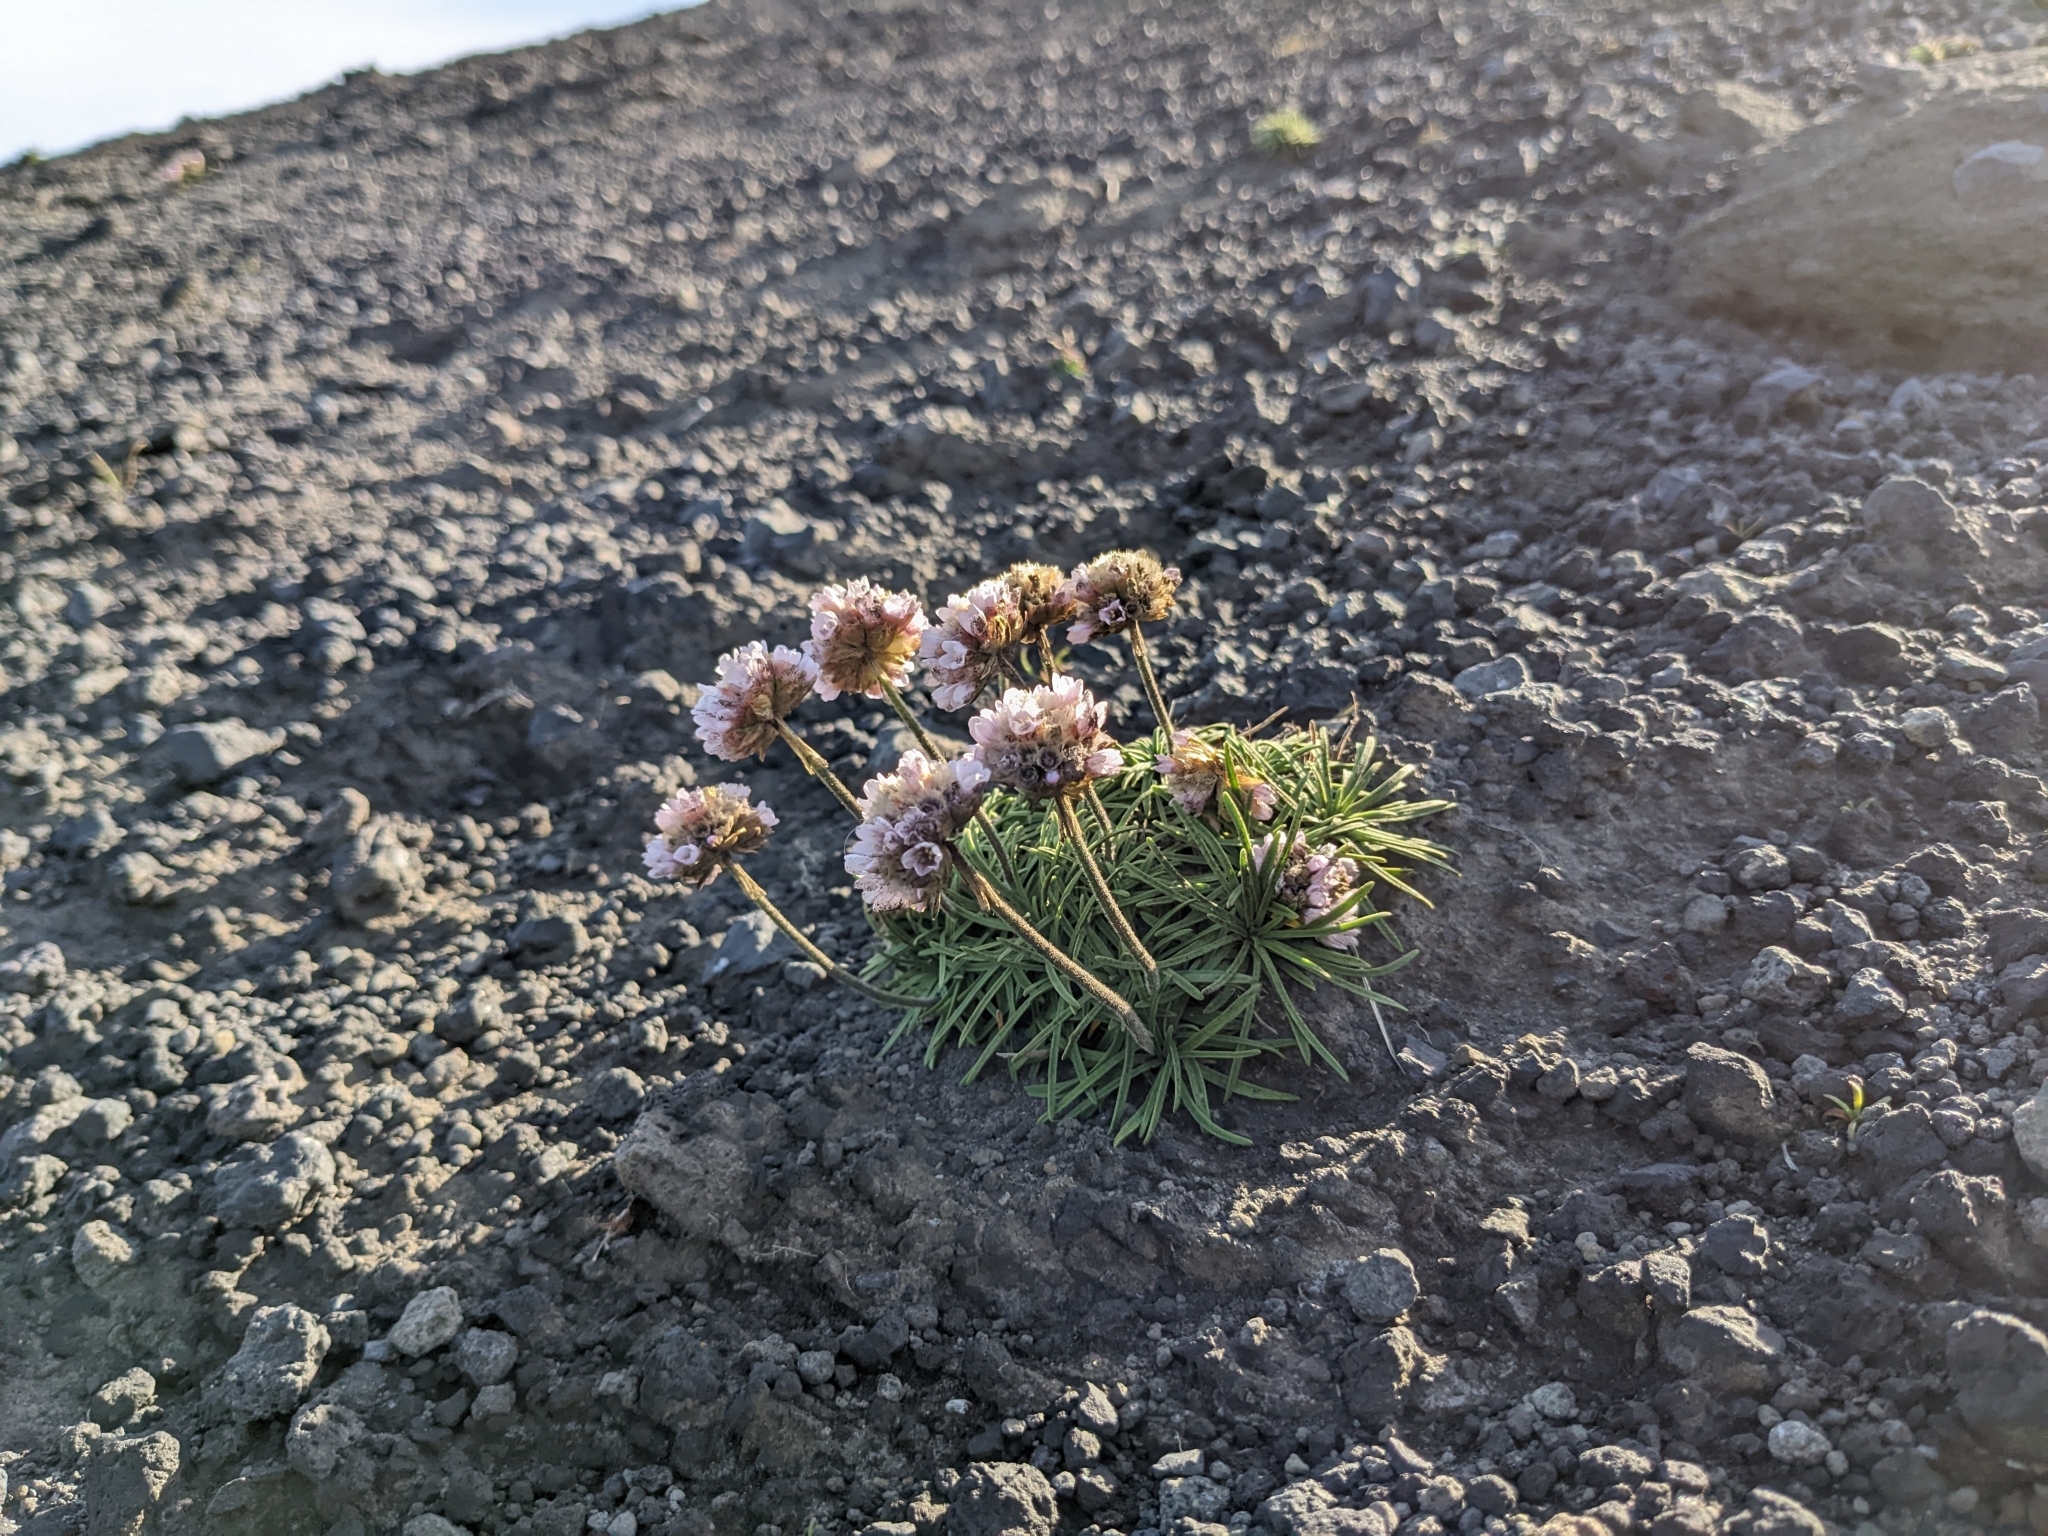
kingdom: Plantae
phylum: Tracheophyta
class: Magnoliopsida
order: Caryophyllales
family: Plumbaginaceae
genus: Armeria
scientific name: Armeria maritima
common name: Thrift
